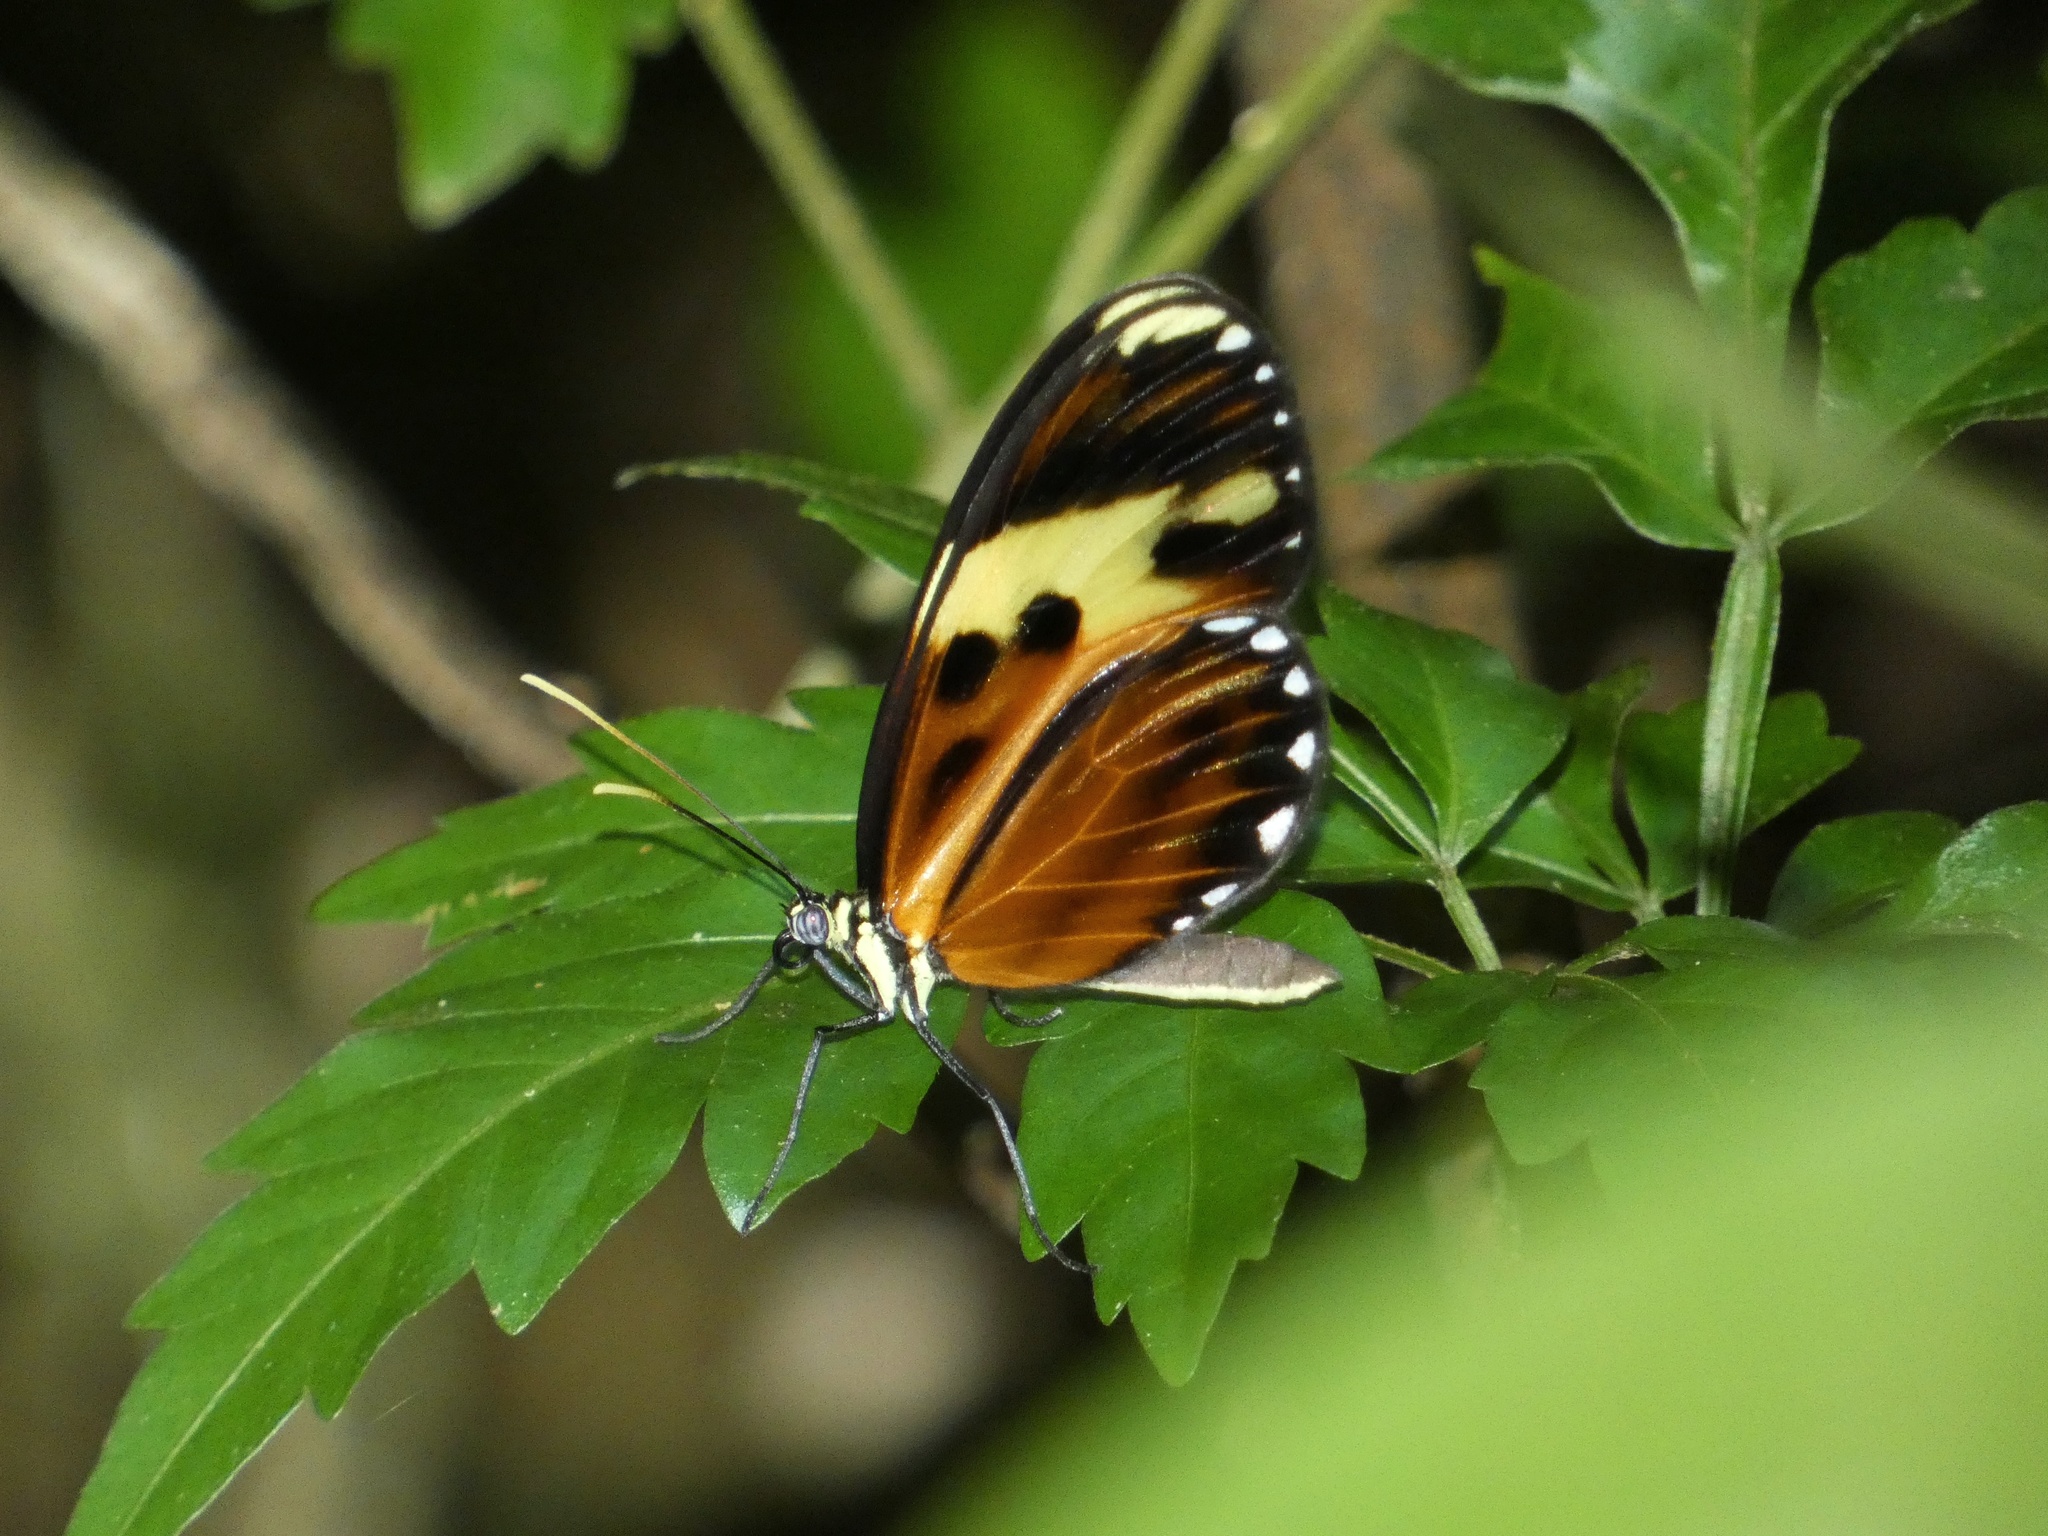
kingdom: Animalia
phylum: Arthropoda
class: Insecta
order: Lepidoptera
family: Nymphalidae
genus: Mechanitis
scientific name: Mechanitis polymnia
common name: Disturbed tigerwing
